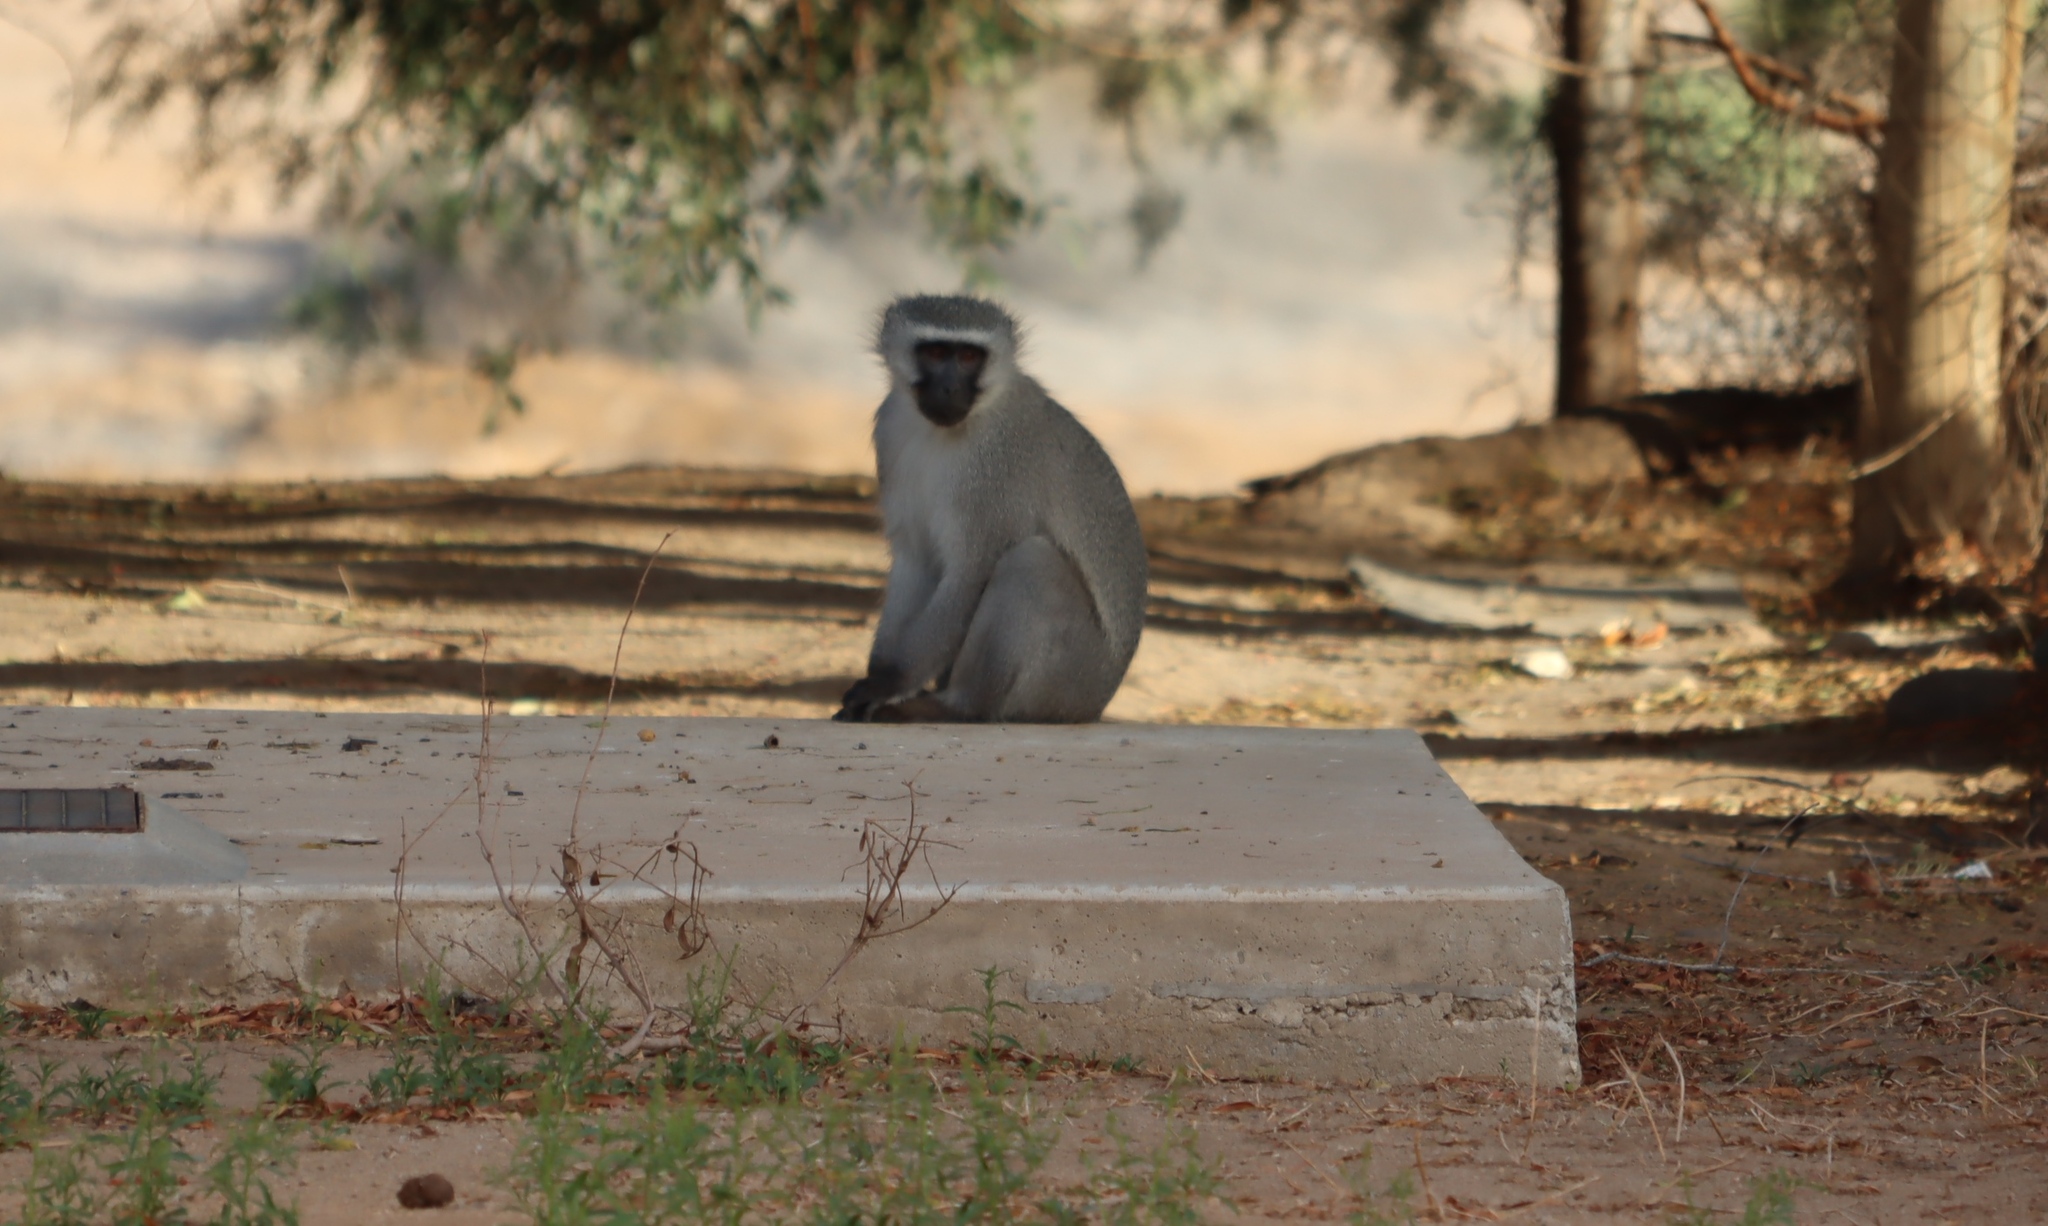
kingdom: Animalia
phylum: Chordata
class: Mammalia
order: Primates
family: Cercopithecidae
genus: Chlorocebus
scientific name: Chlorocebus pygerythrus
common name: Vervet monkey
